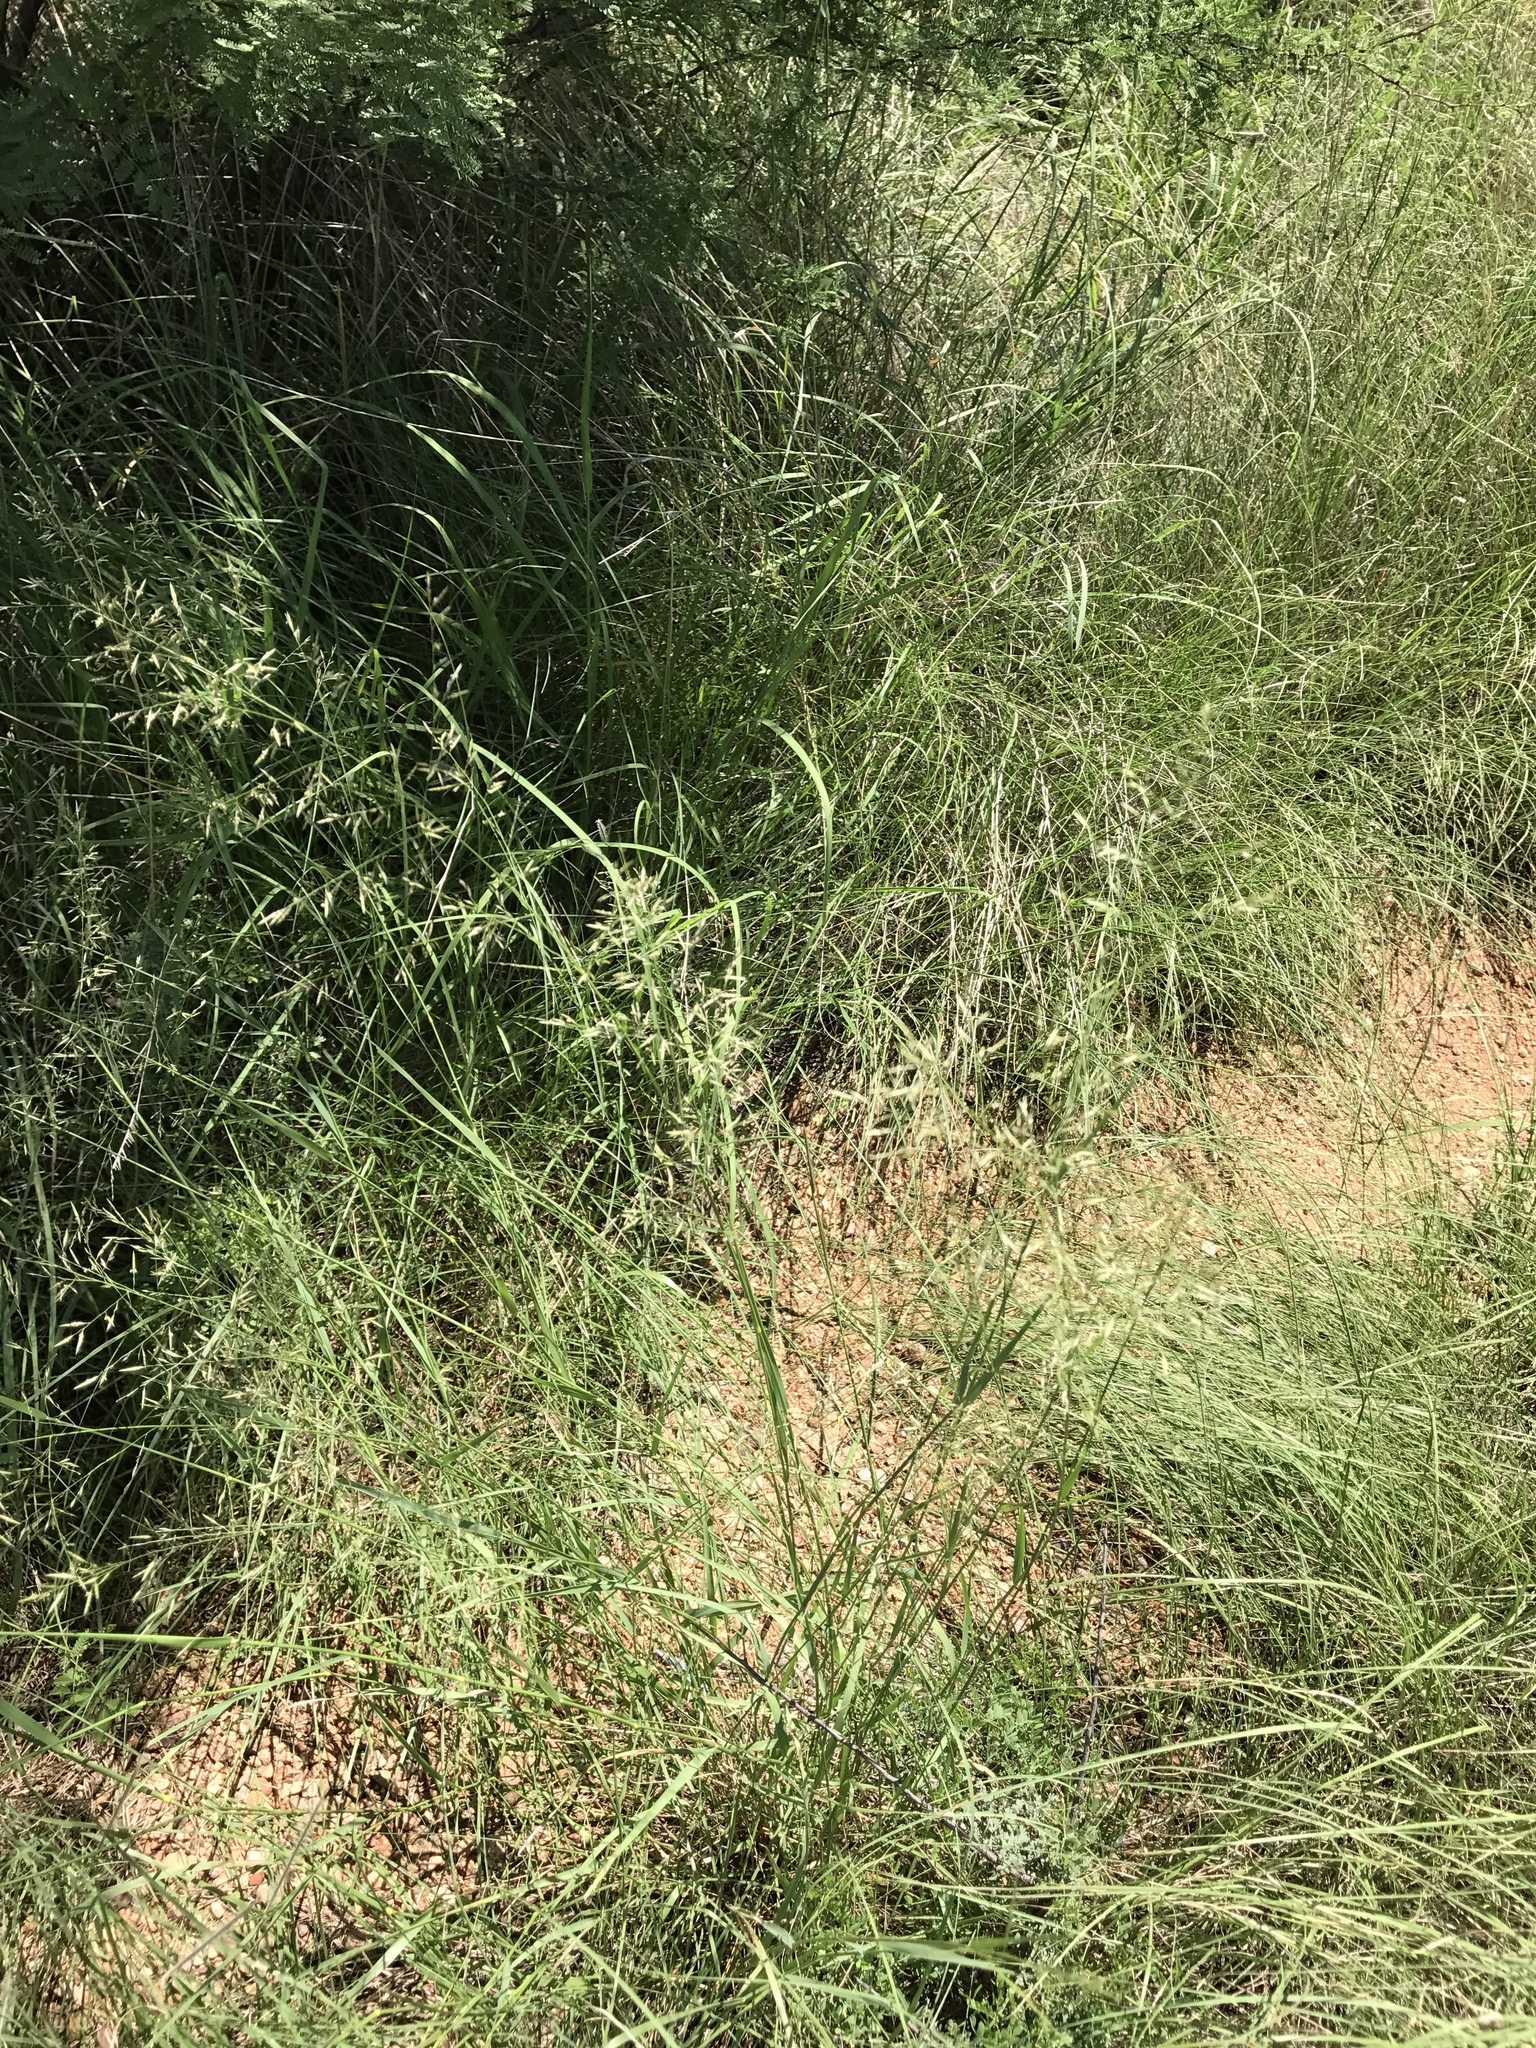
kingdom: Plantae
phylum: Tracheophyta
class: Liliopsida
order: Poales
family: Poaceae
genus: Eragrostis
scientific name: Eragrostis lehmanniana
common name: Lehmann lovegrass
